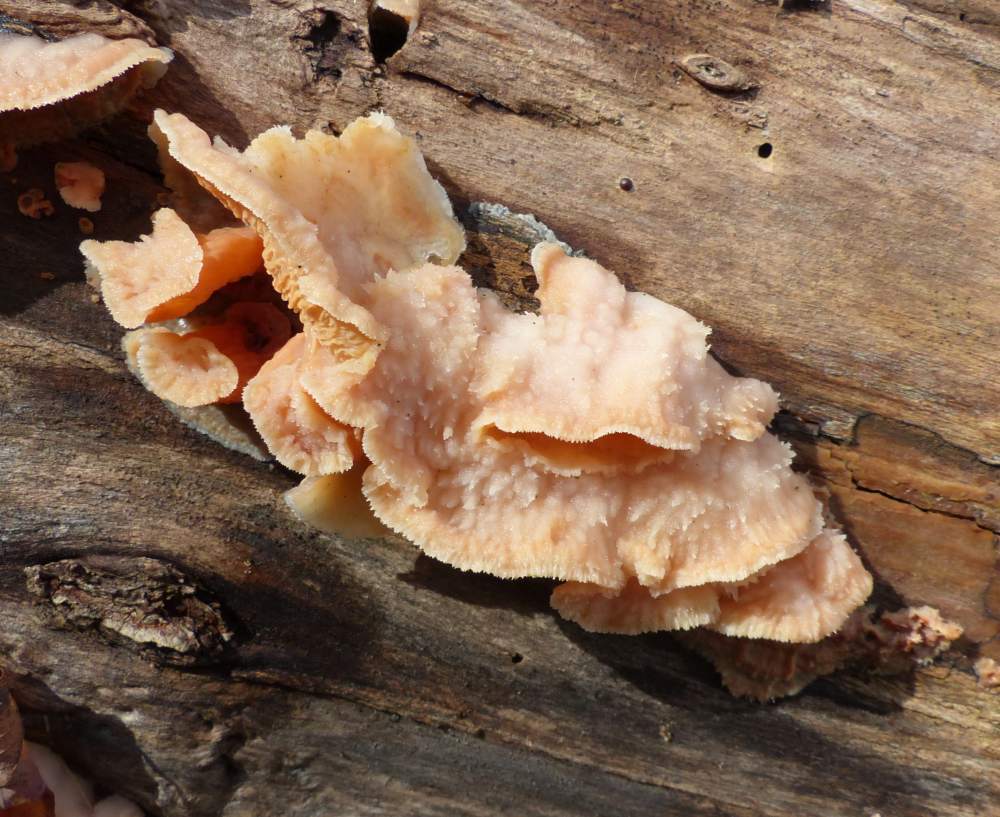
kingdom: Fungi
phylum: Basidiomycota
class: Agaricomycetes
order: Polyporales
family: Meruliaceae
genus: Phlebia
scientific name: Phlebia tremellosa
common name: Jelly rot
